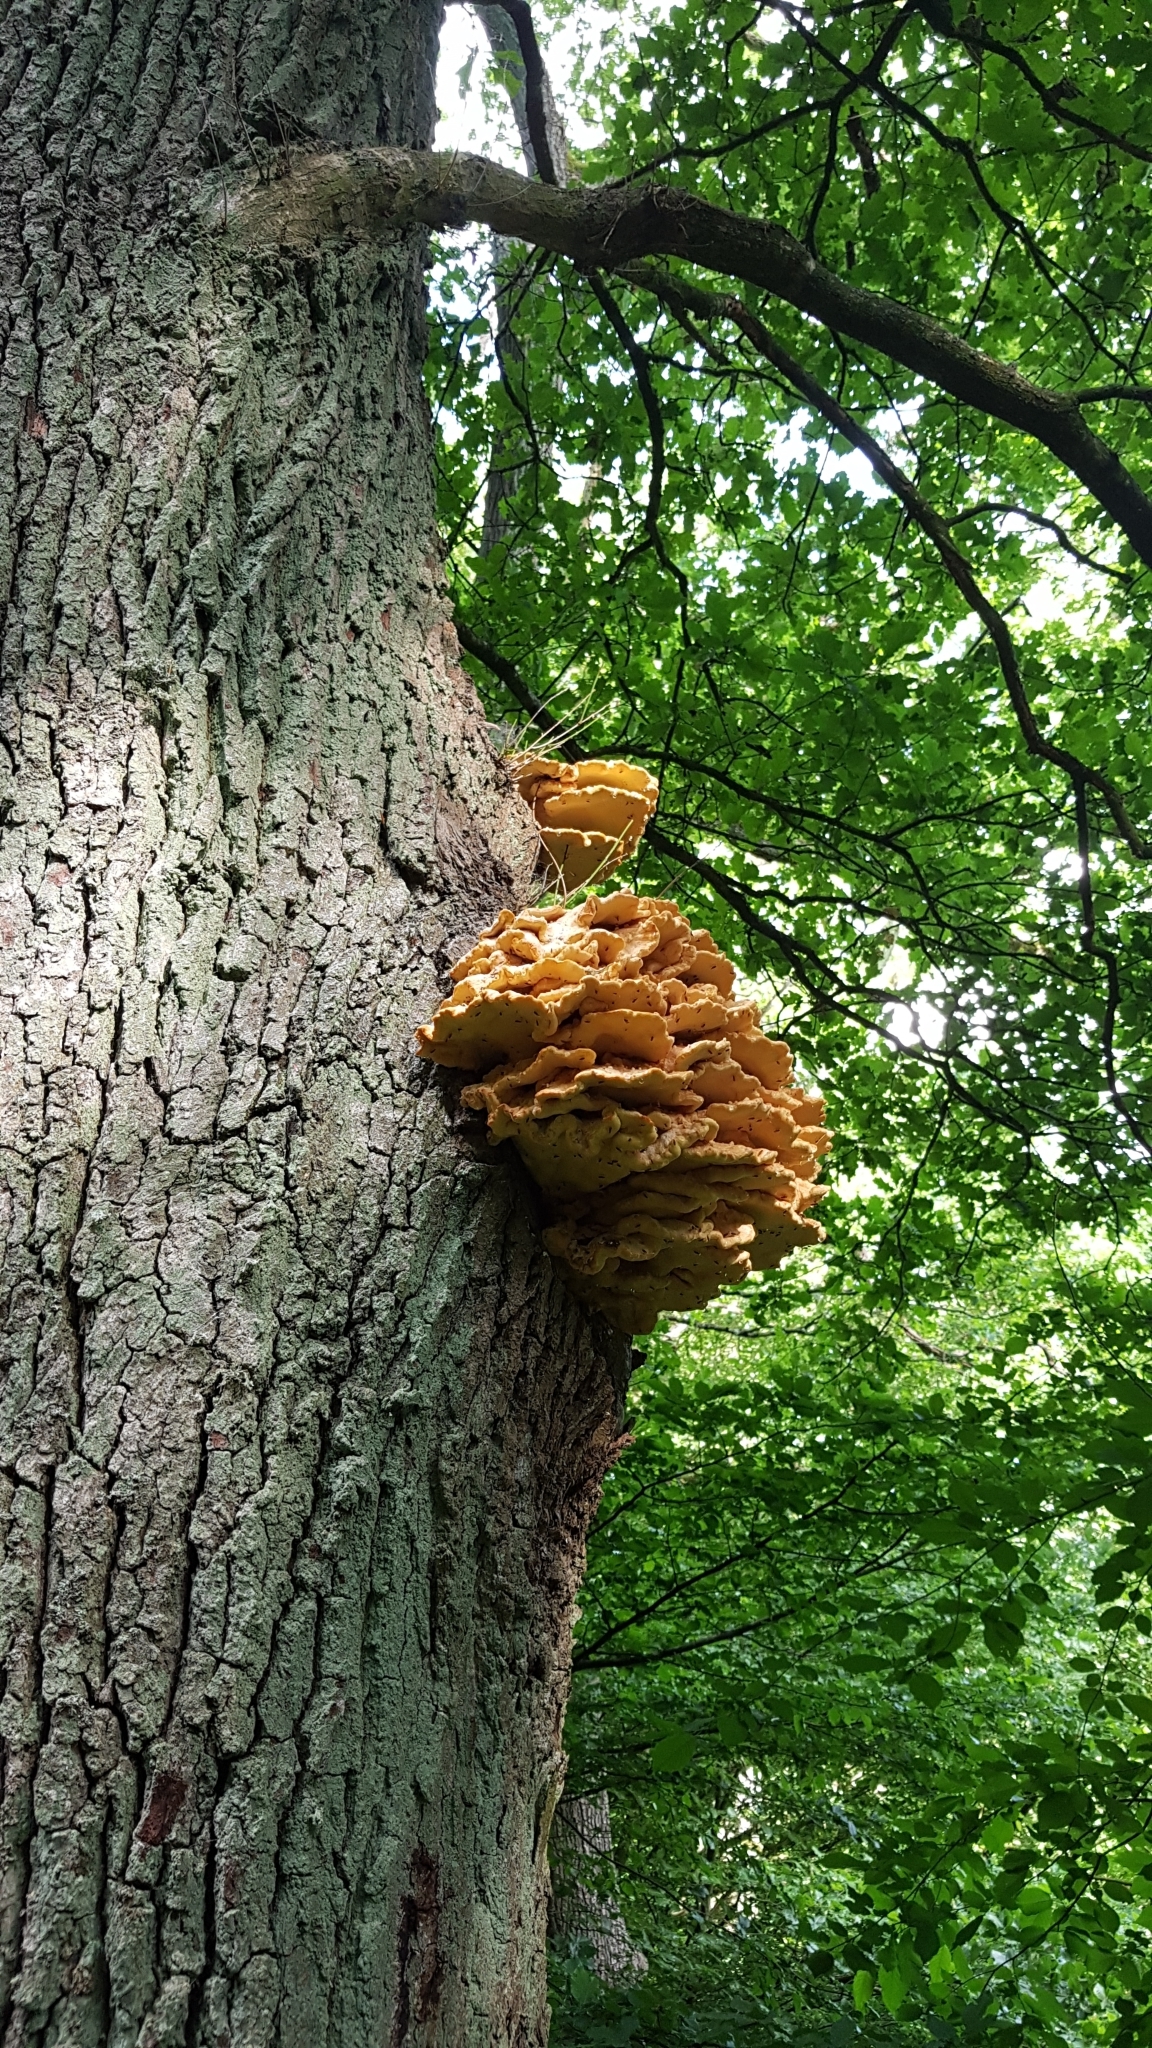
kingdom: Fungi
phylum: Basidiomycota
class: Agaricomycetes
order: Polyporales
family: Laetiporaceae
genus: Laetiporus
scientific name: Laetiporus sulphureus
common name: Chicken of the woods
